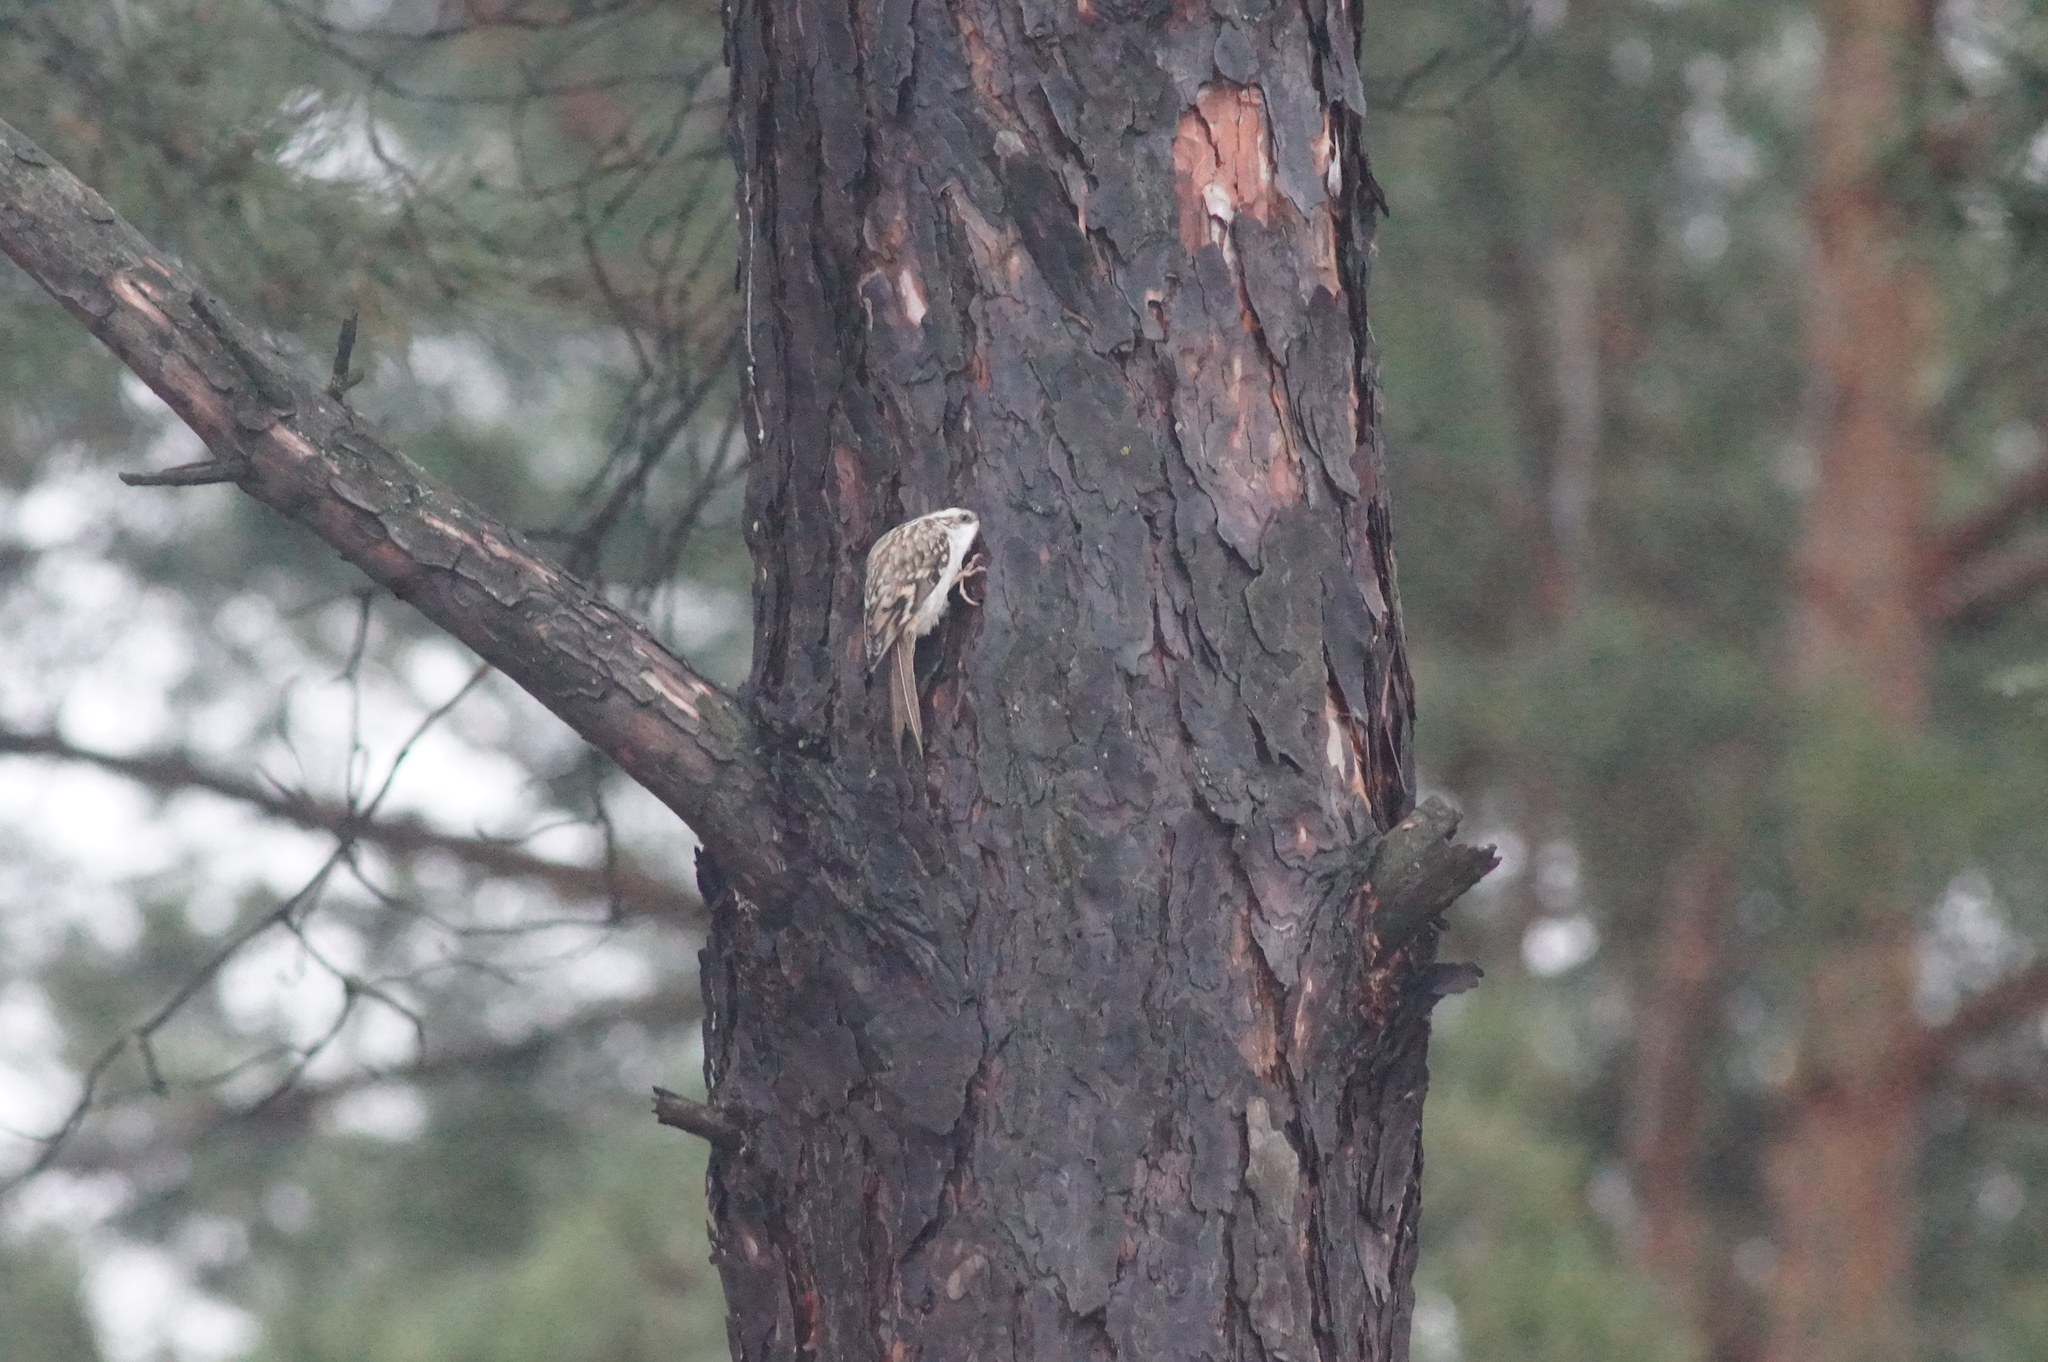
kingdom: Animalia
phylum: Chordata
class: Aves
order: Passeriformes
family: Certhiidae
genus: Certhia
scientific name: Certhia familiaris
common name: Eurasian treecreeper
